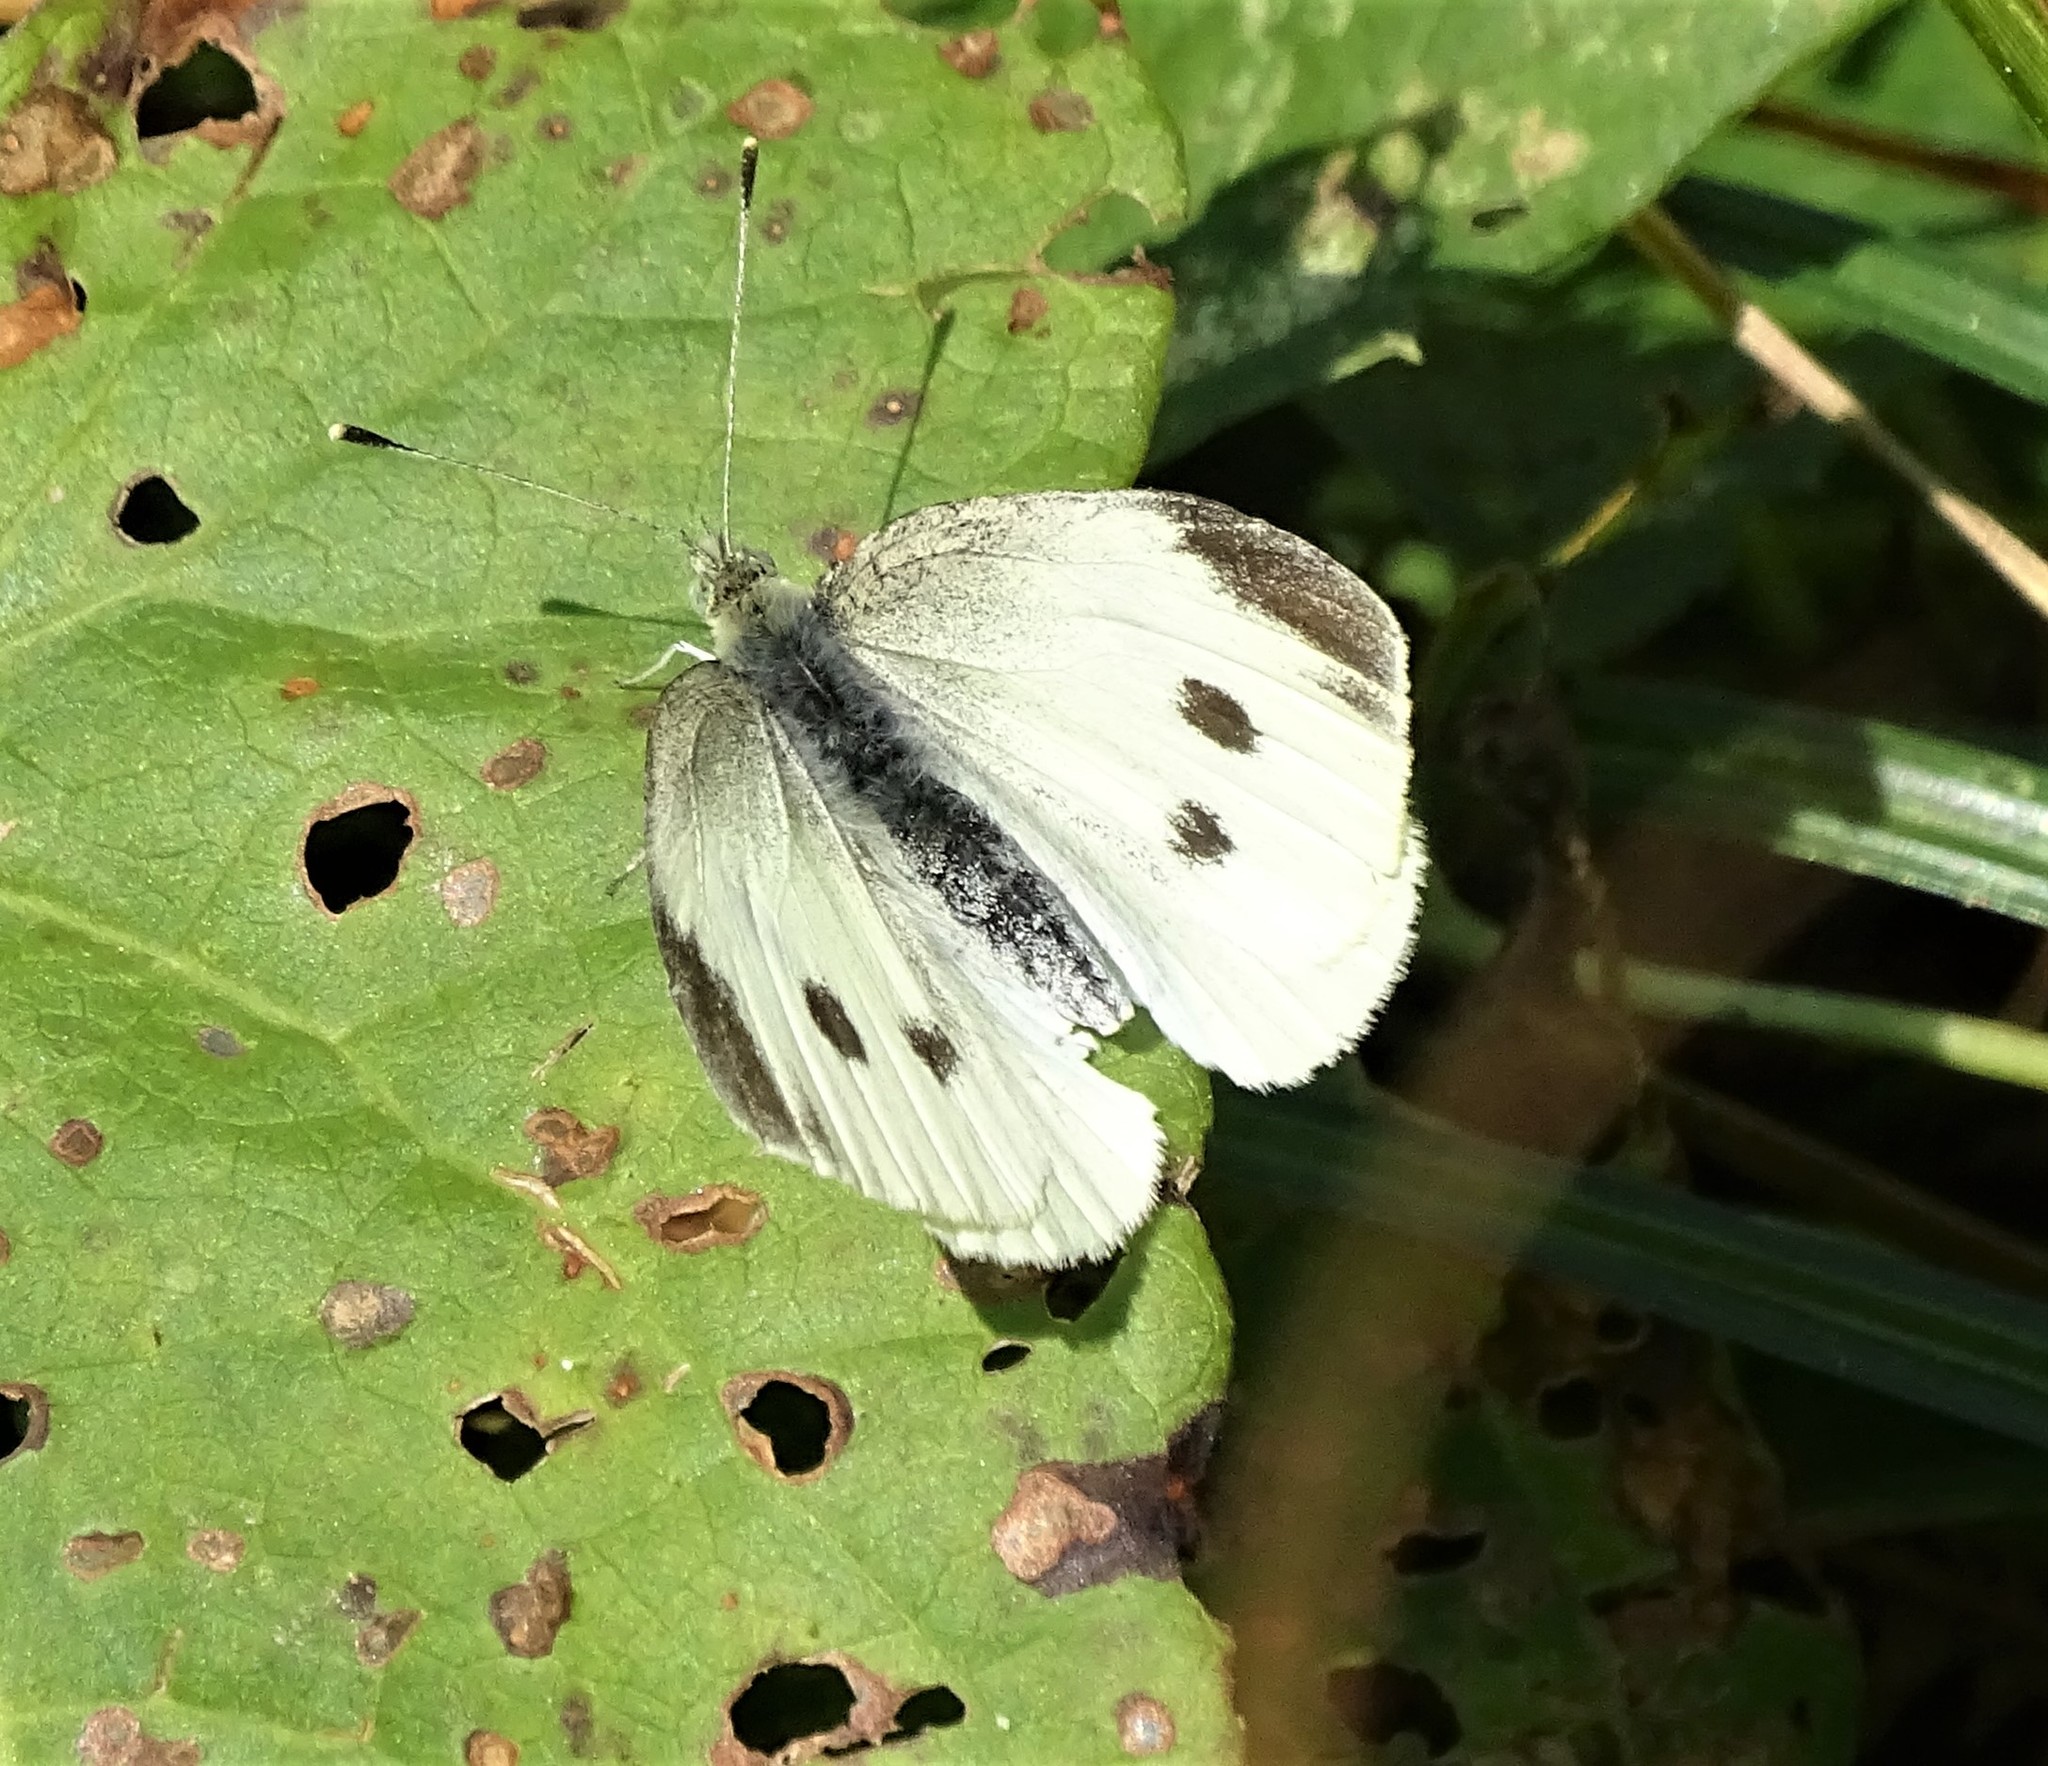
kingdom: Animalia
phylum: Arthropoda
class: Insecta
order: Lepidoptera
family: Pieridae
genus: Pieris
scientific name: Pieris rapae
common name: Small white
